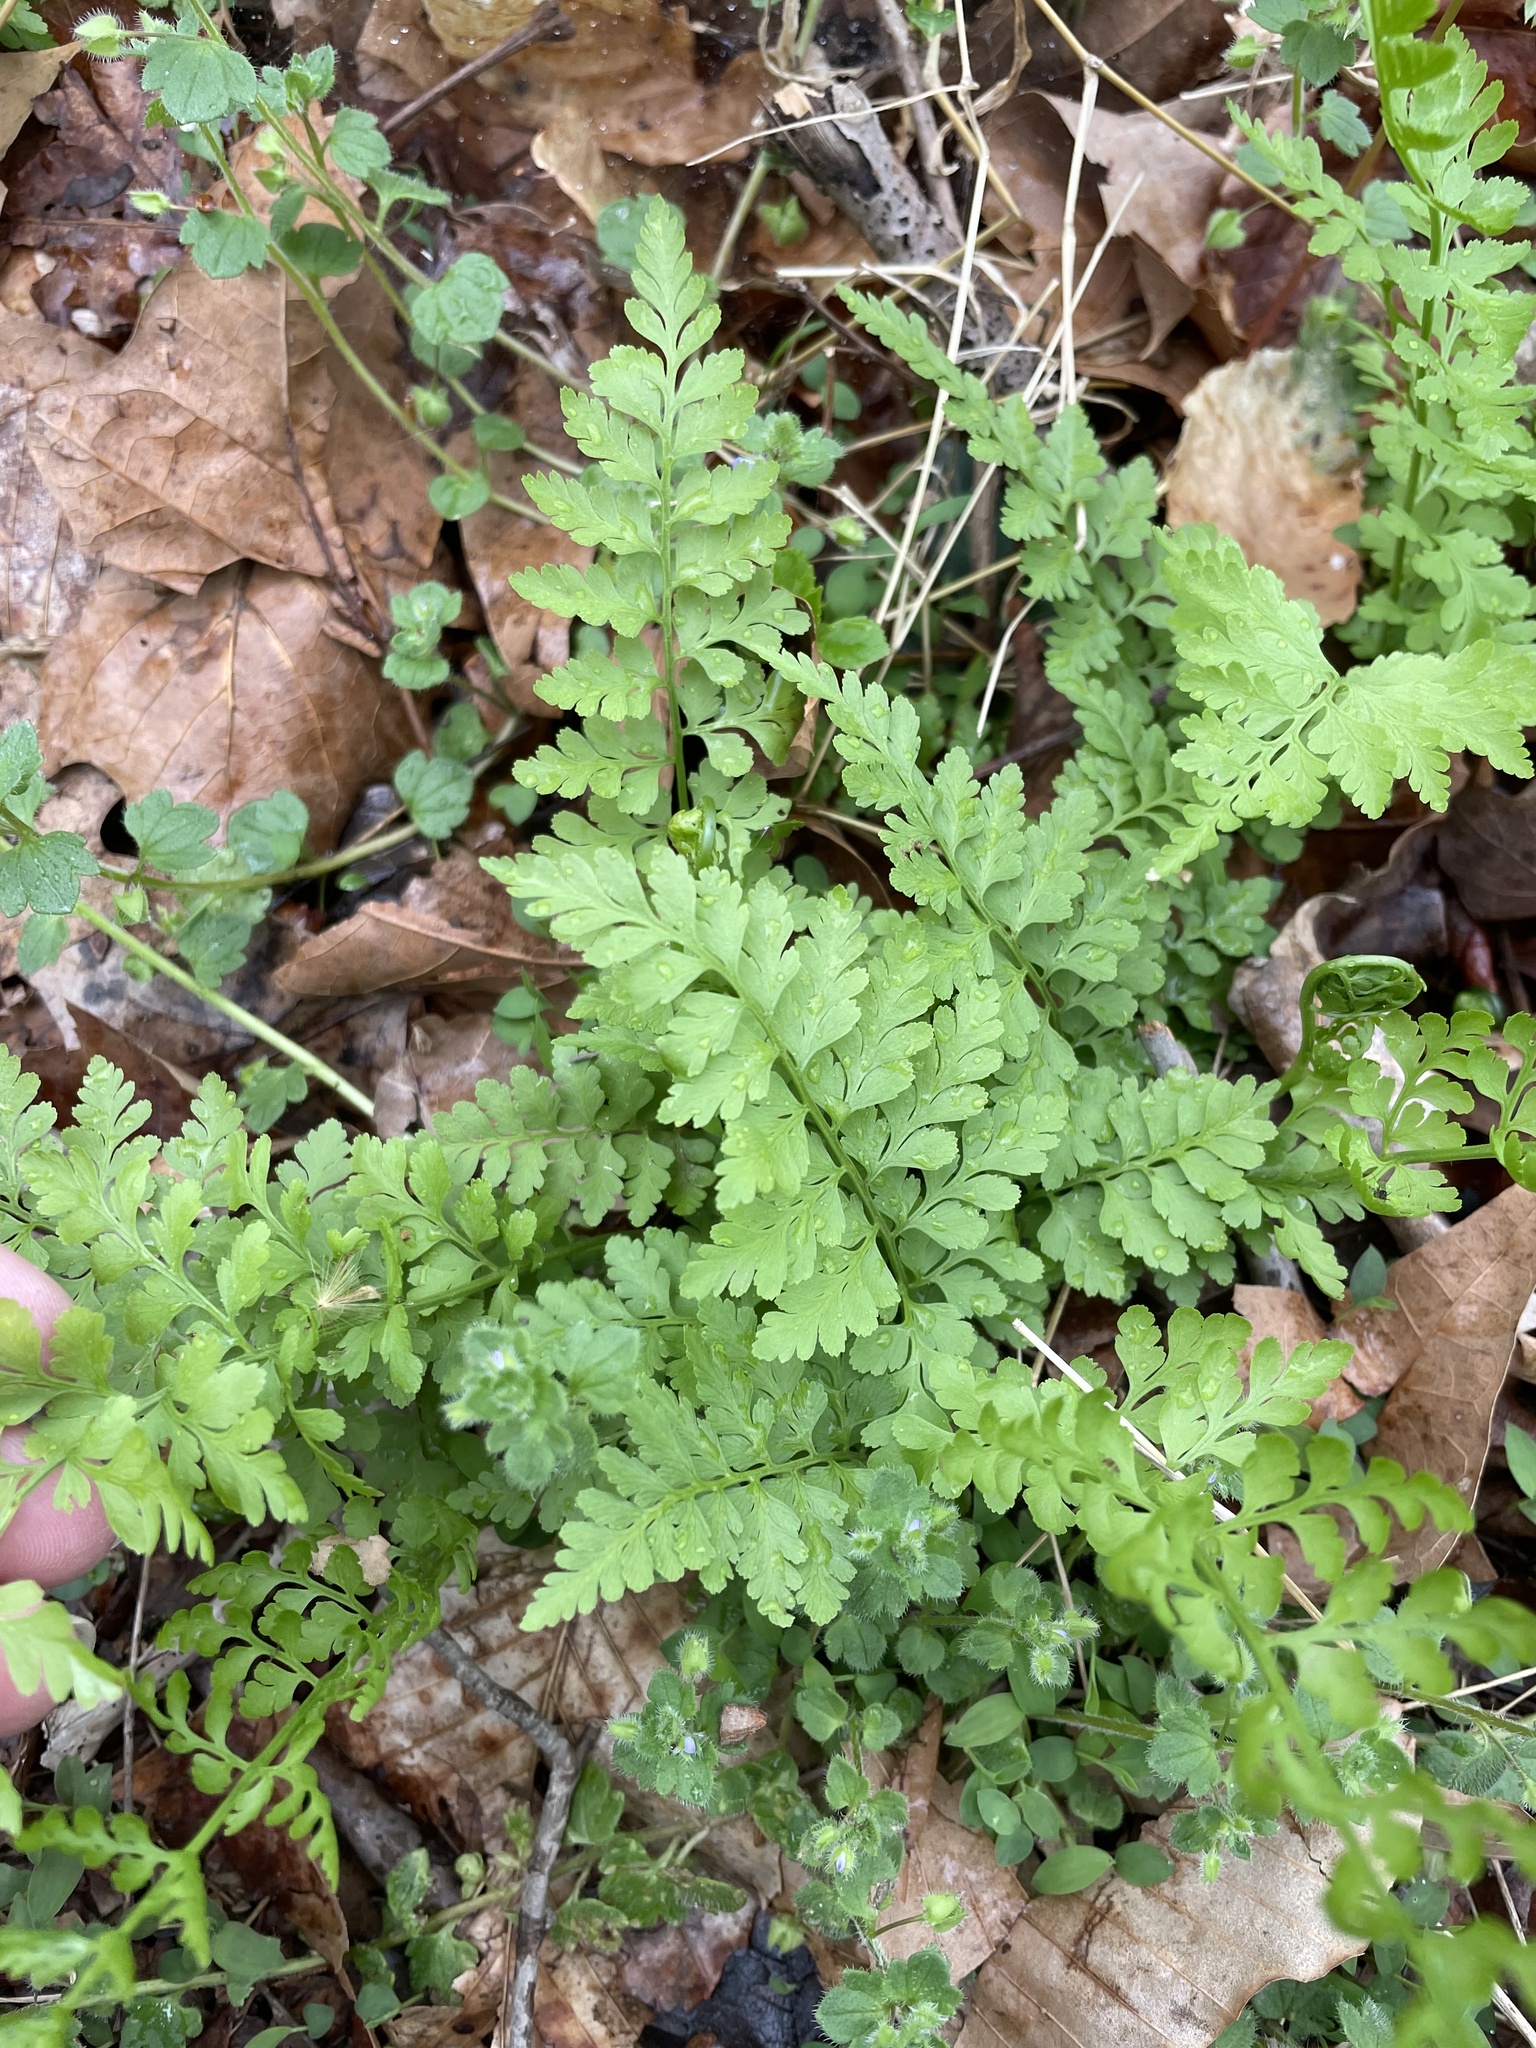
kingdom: Plantae
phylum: Tracheophyta
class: Polypodiopsida
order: Polypodiales
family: Cystopteridaceae
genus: Cystopteris
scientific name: Cystopteris protrusa
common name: Lowland brittle fern
